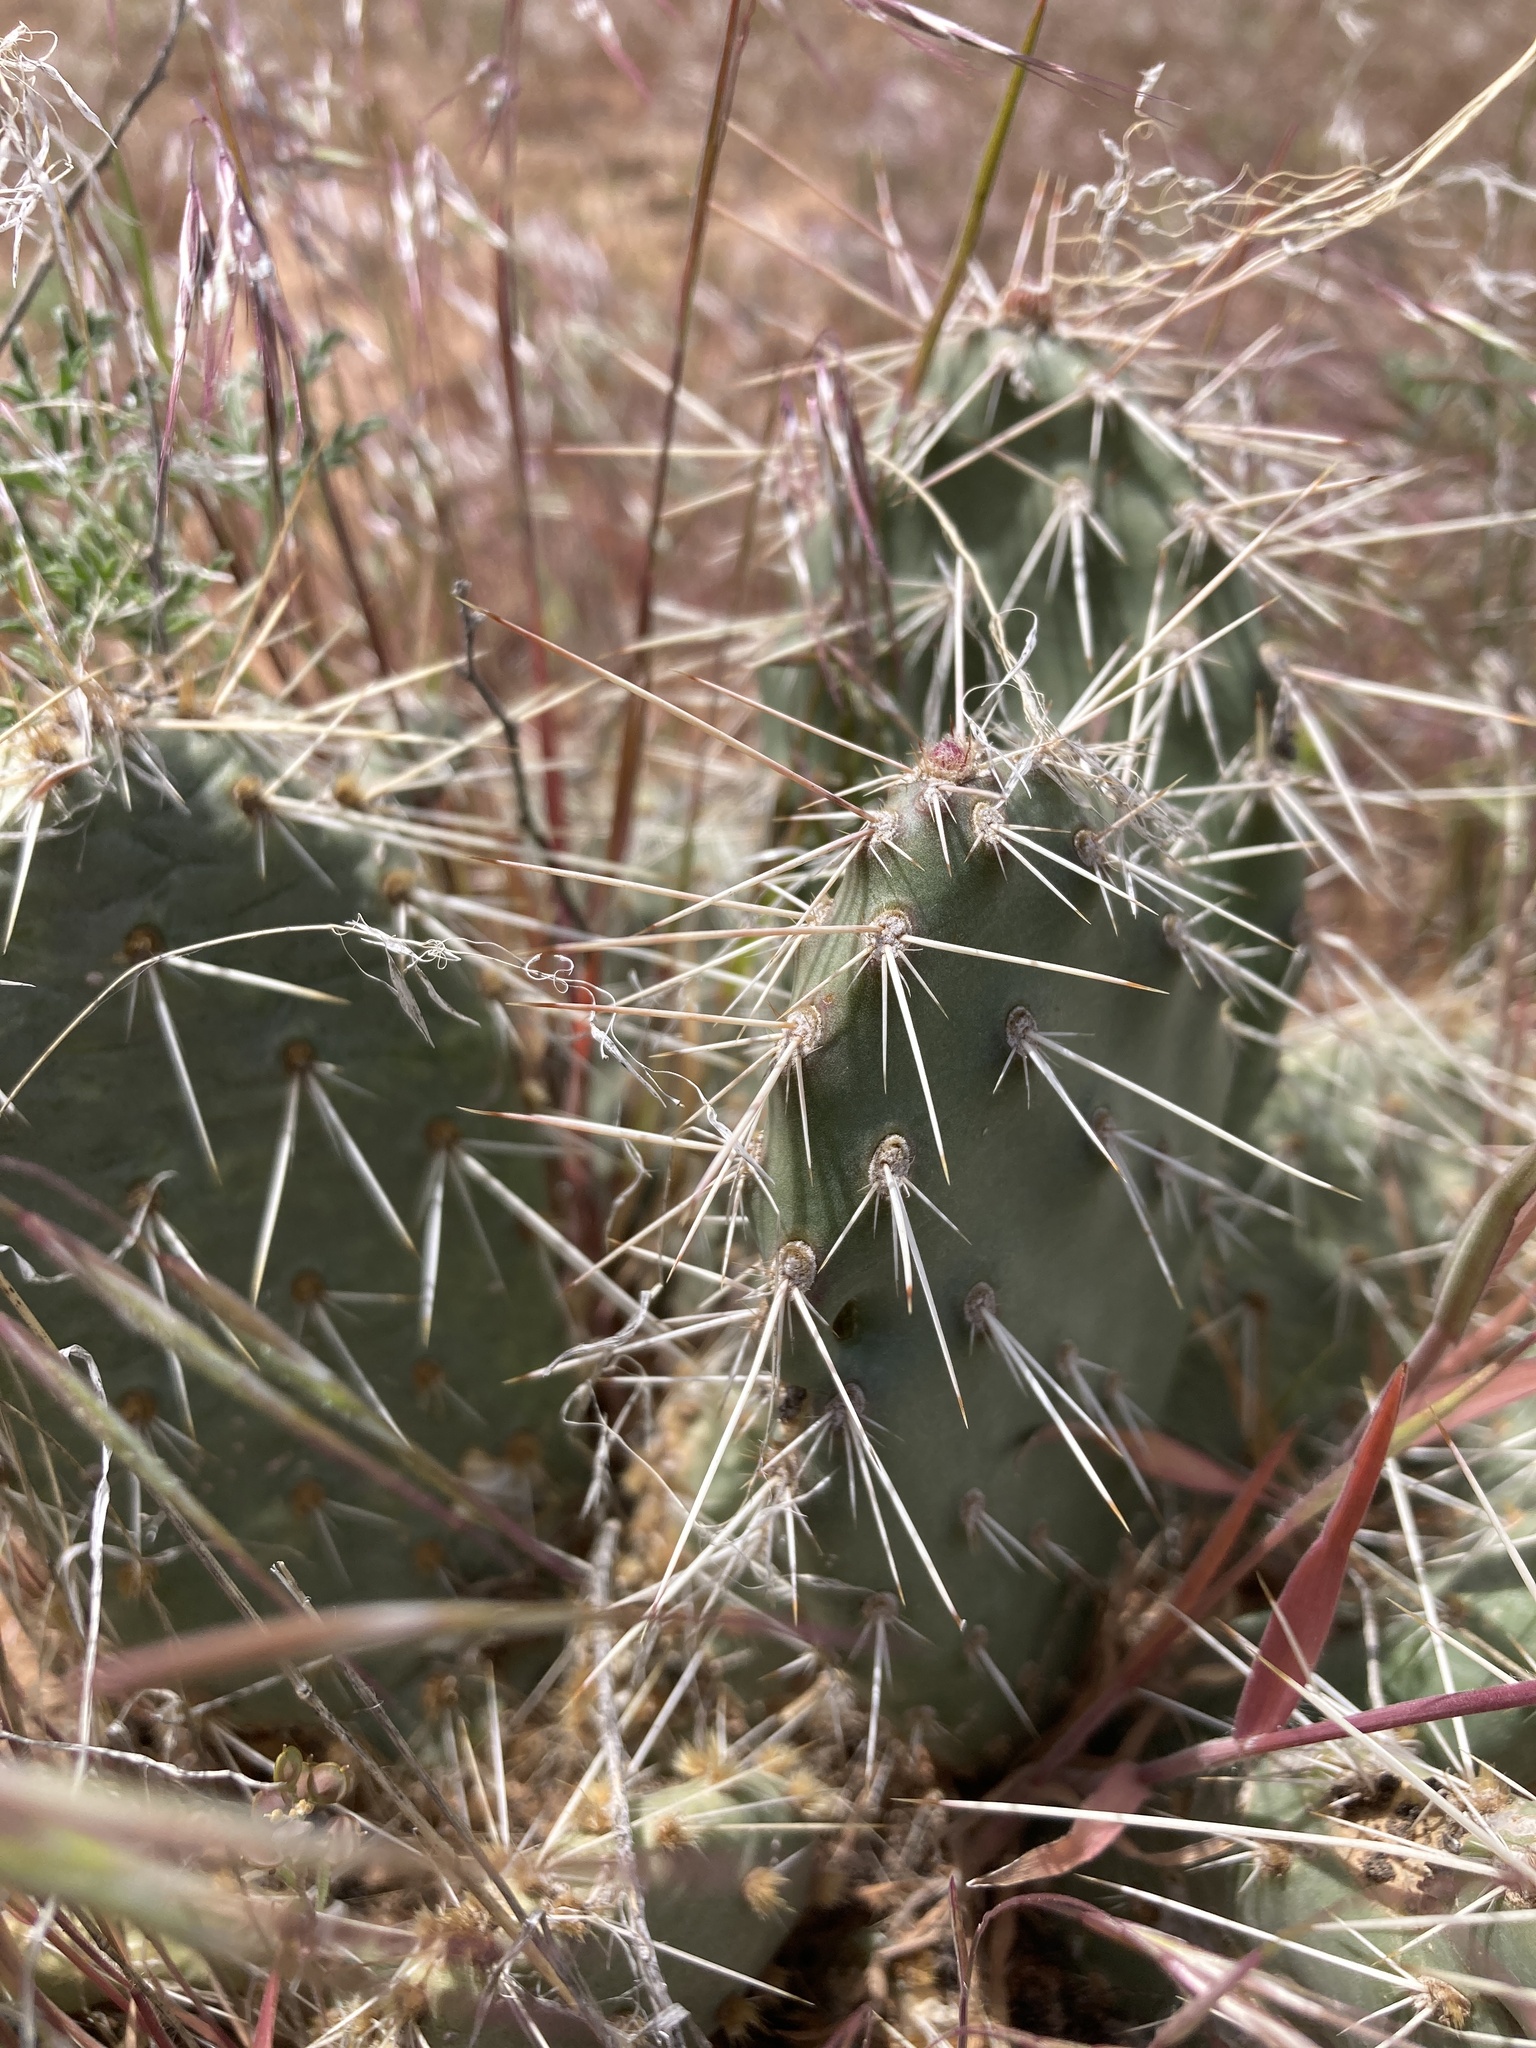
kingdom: Plantae
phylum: Tracheophyta
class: Magnoliopsida
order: Caryophyllales
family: Cactaceae
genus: Opuntia
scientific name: Opuntia polyacantha
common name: Plains prickly-pear
